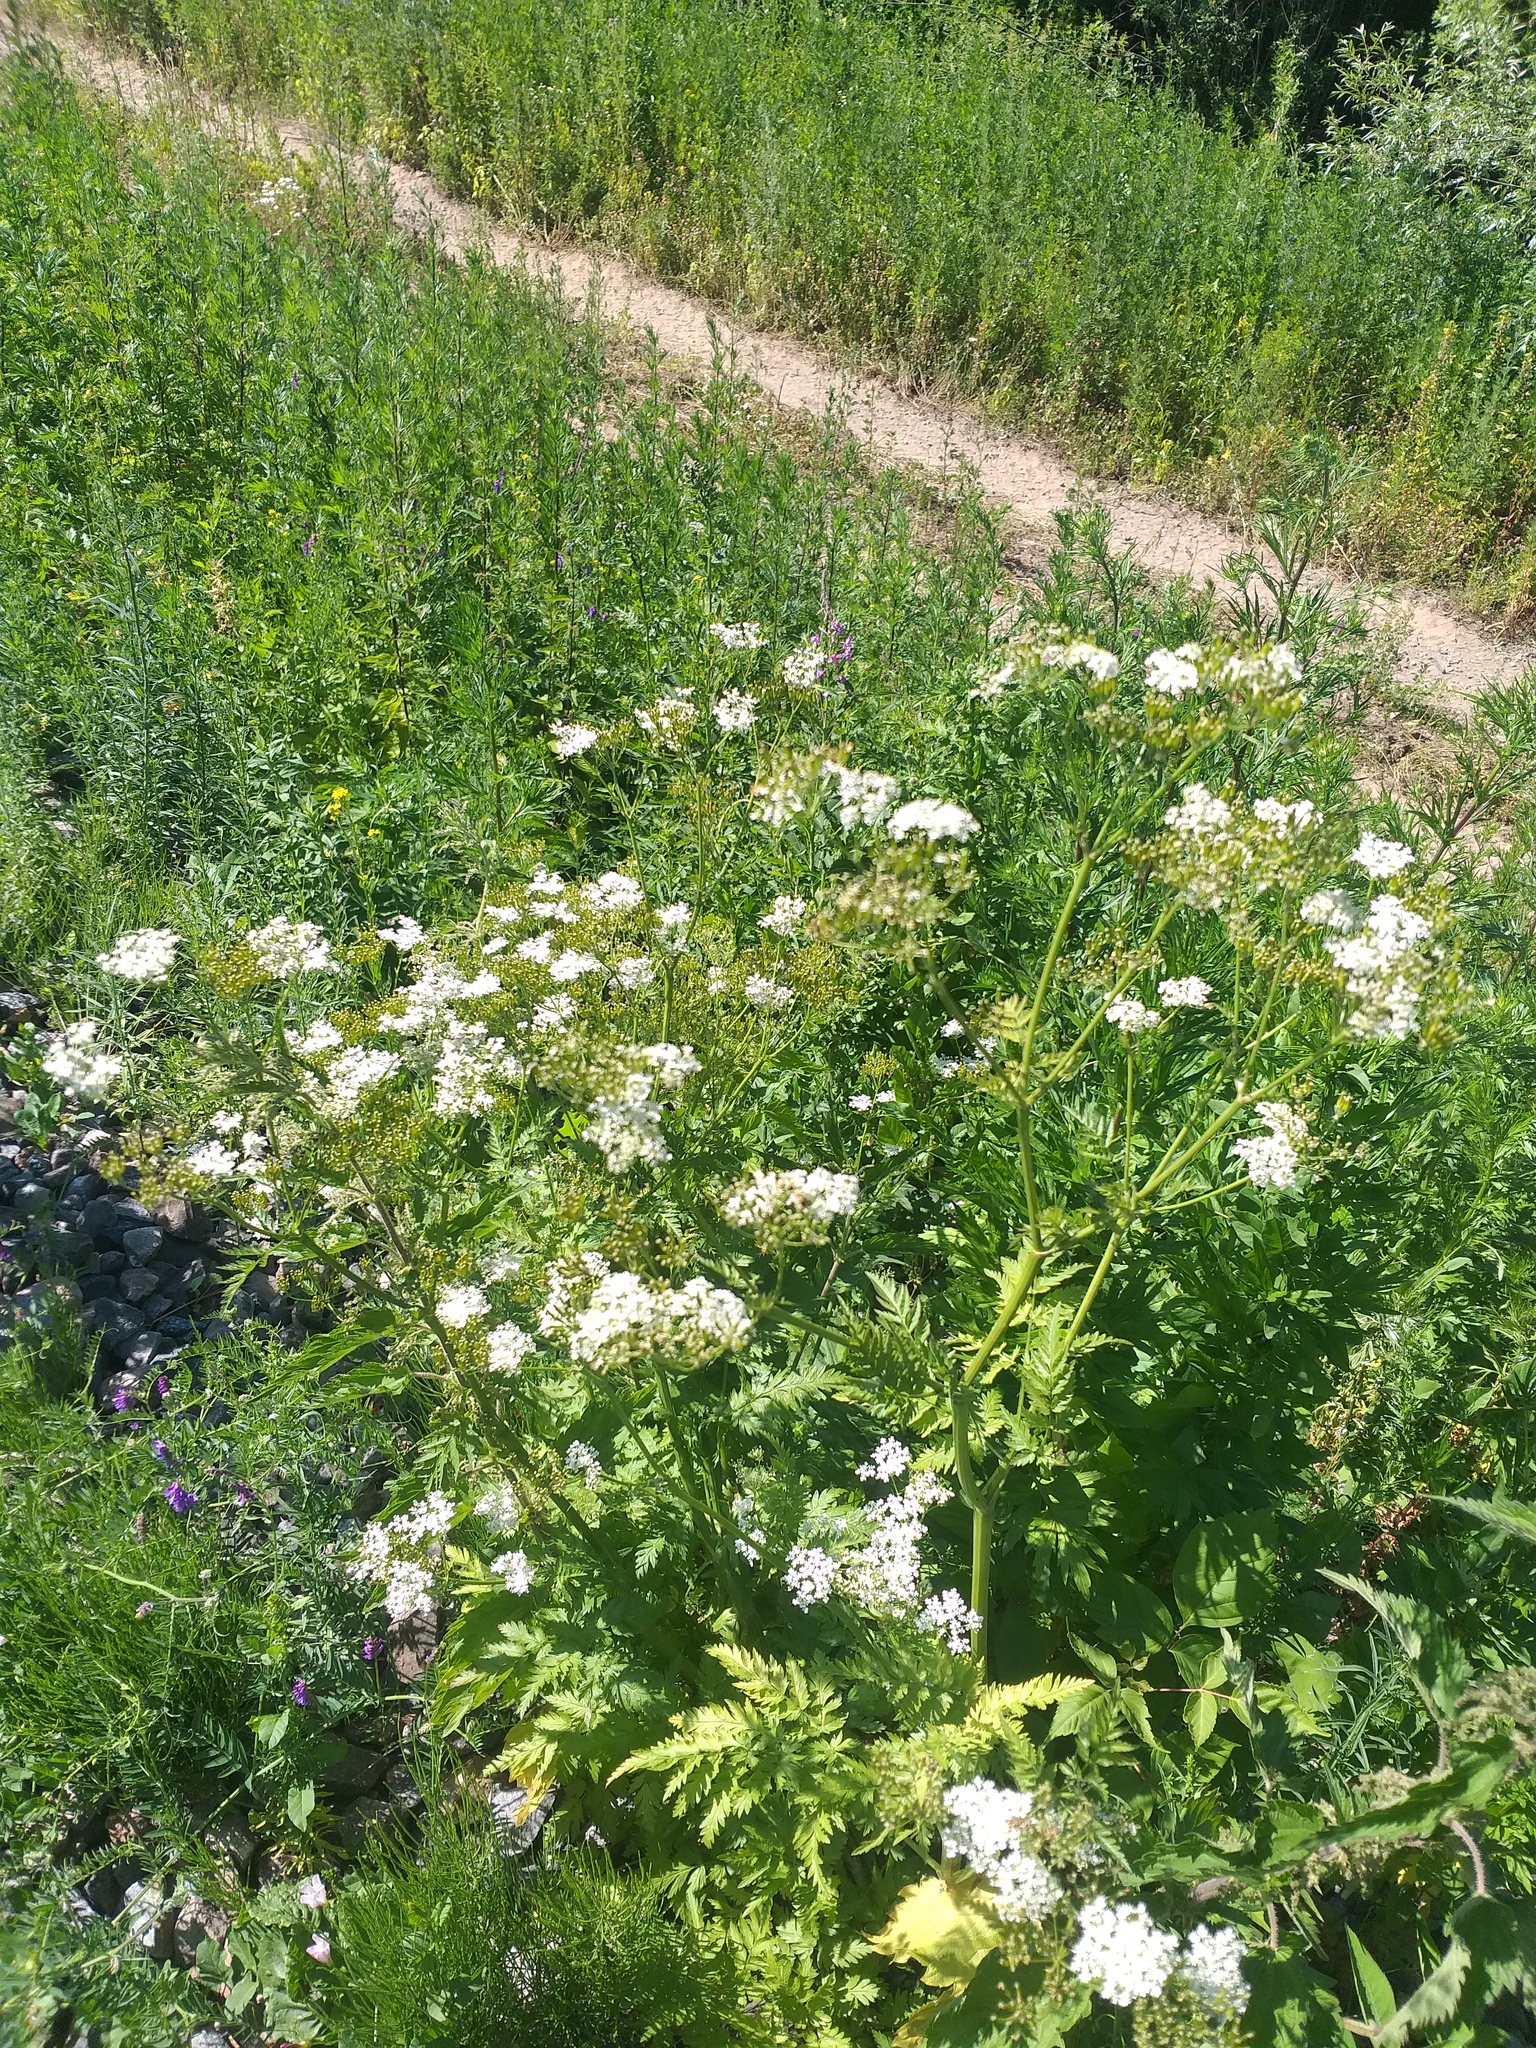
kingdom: Plantae
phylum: Tracheophyta
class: Magnoliopsida
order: Apiales
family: Apiaceae
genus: Anthriscus
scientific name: Anthriscus sylvestris
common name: Cow parsley
